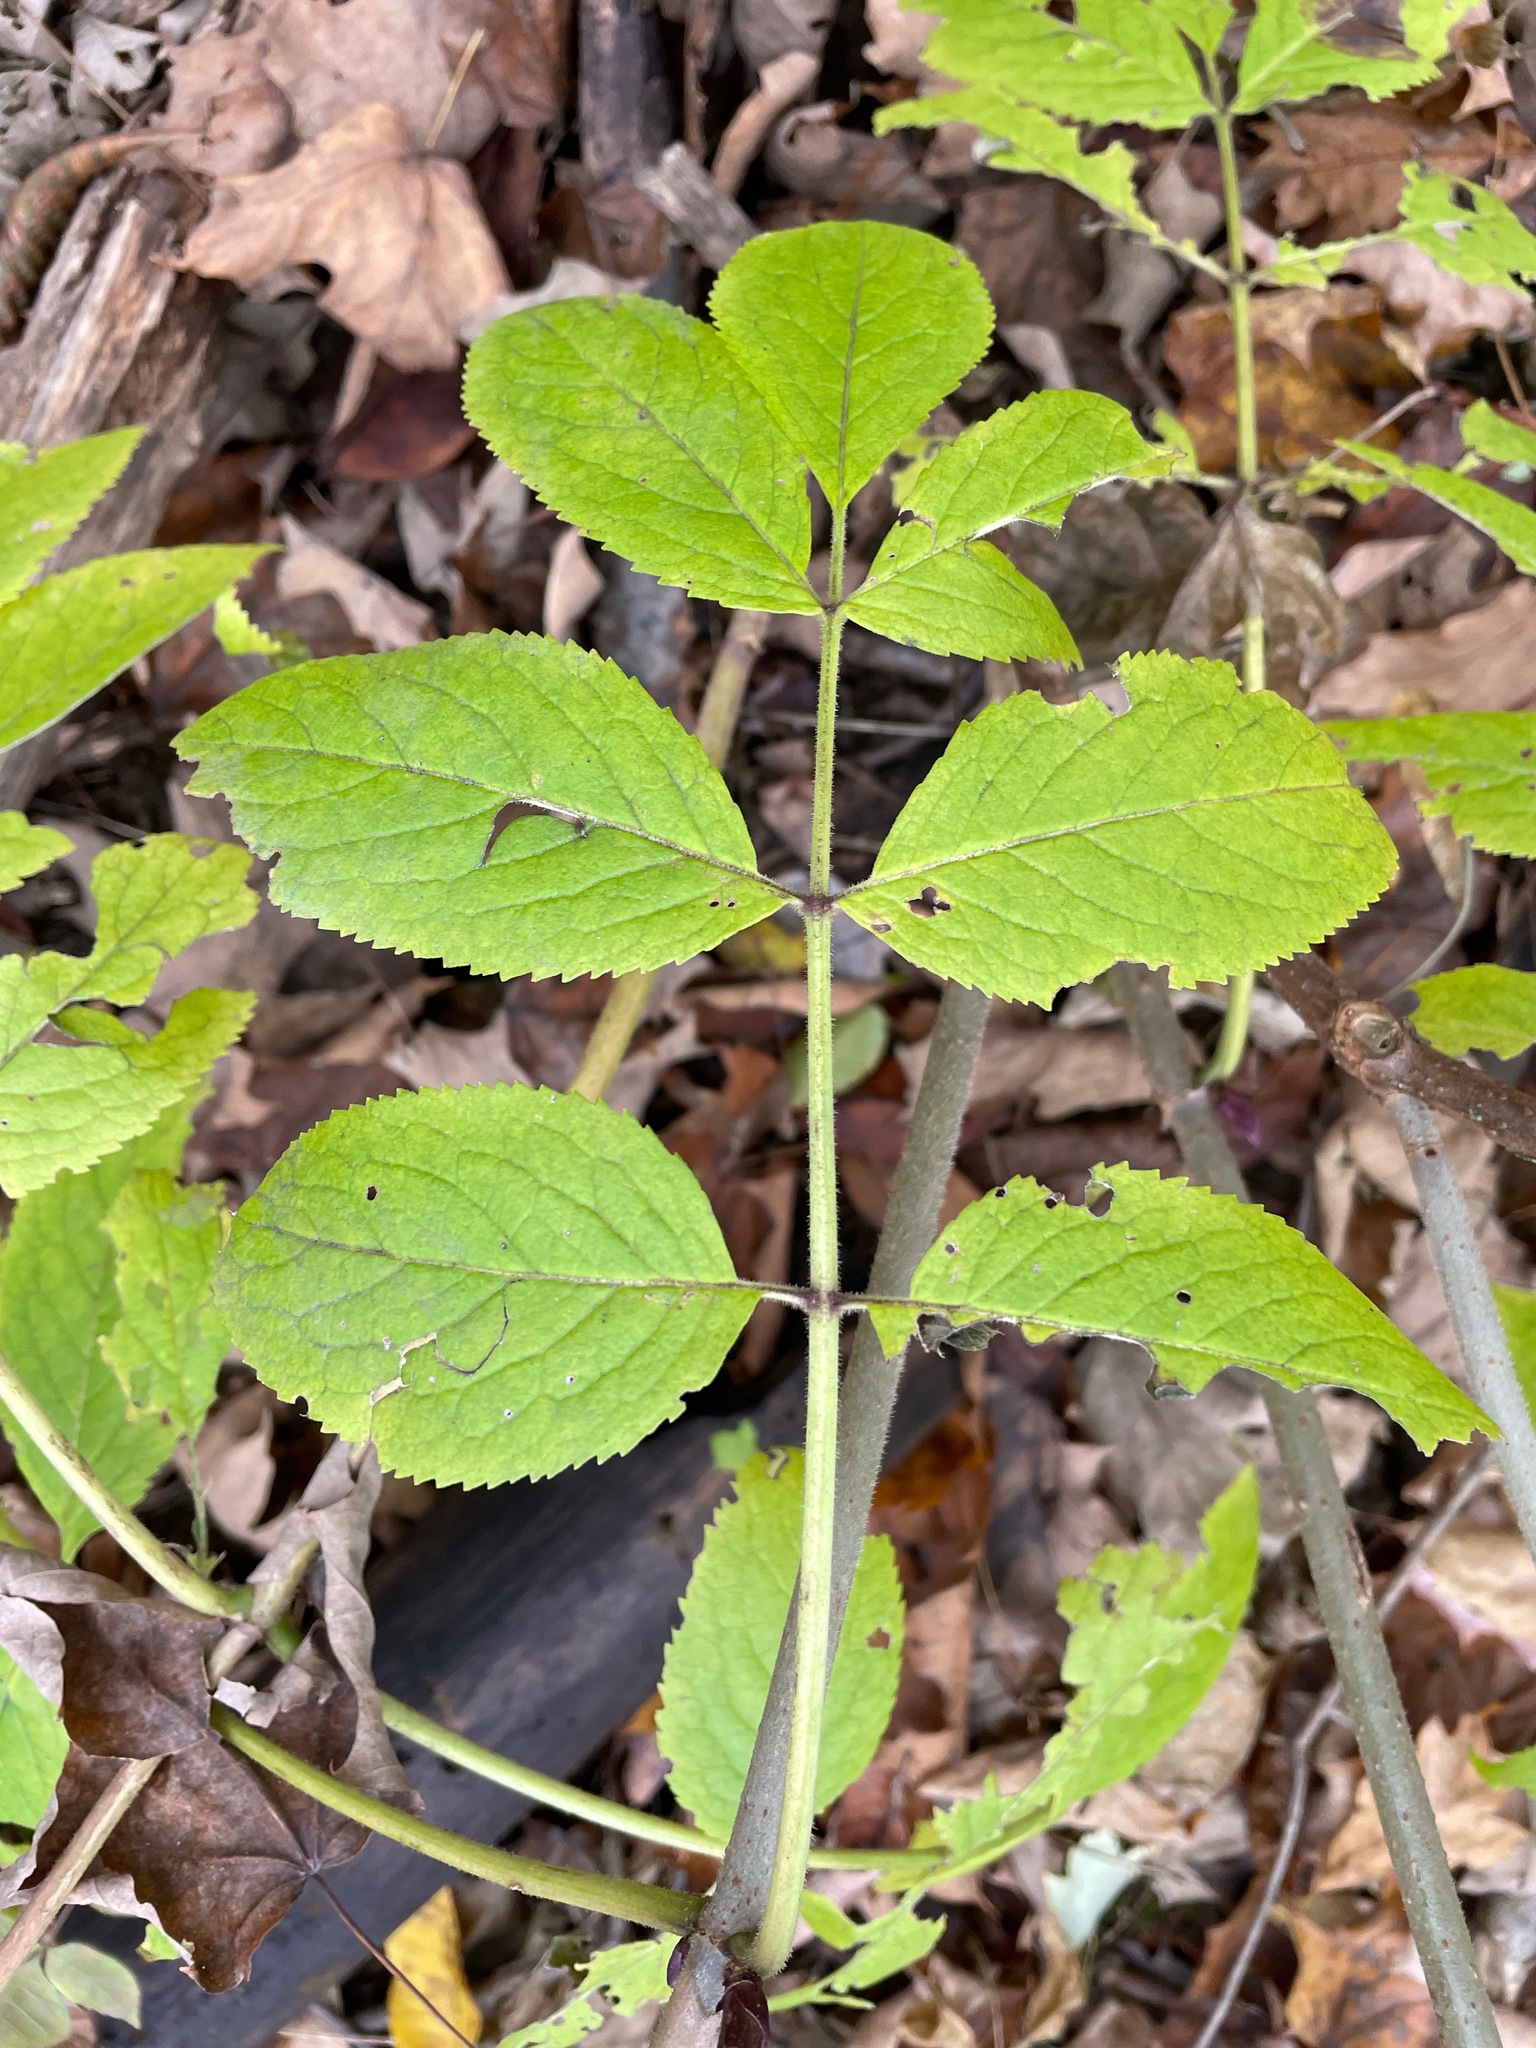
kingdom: Plantae
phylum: Tracheophyta
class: Magnoliopsida
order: Dipsacales
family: Viburnaceae
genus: Sambucus
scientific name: Sambucus racemosa
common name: Red-berried elder
